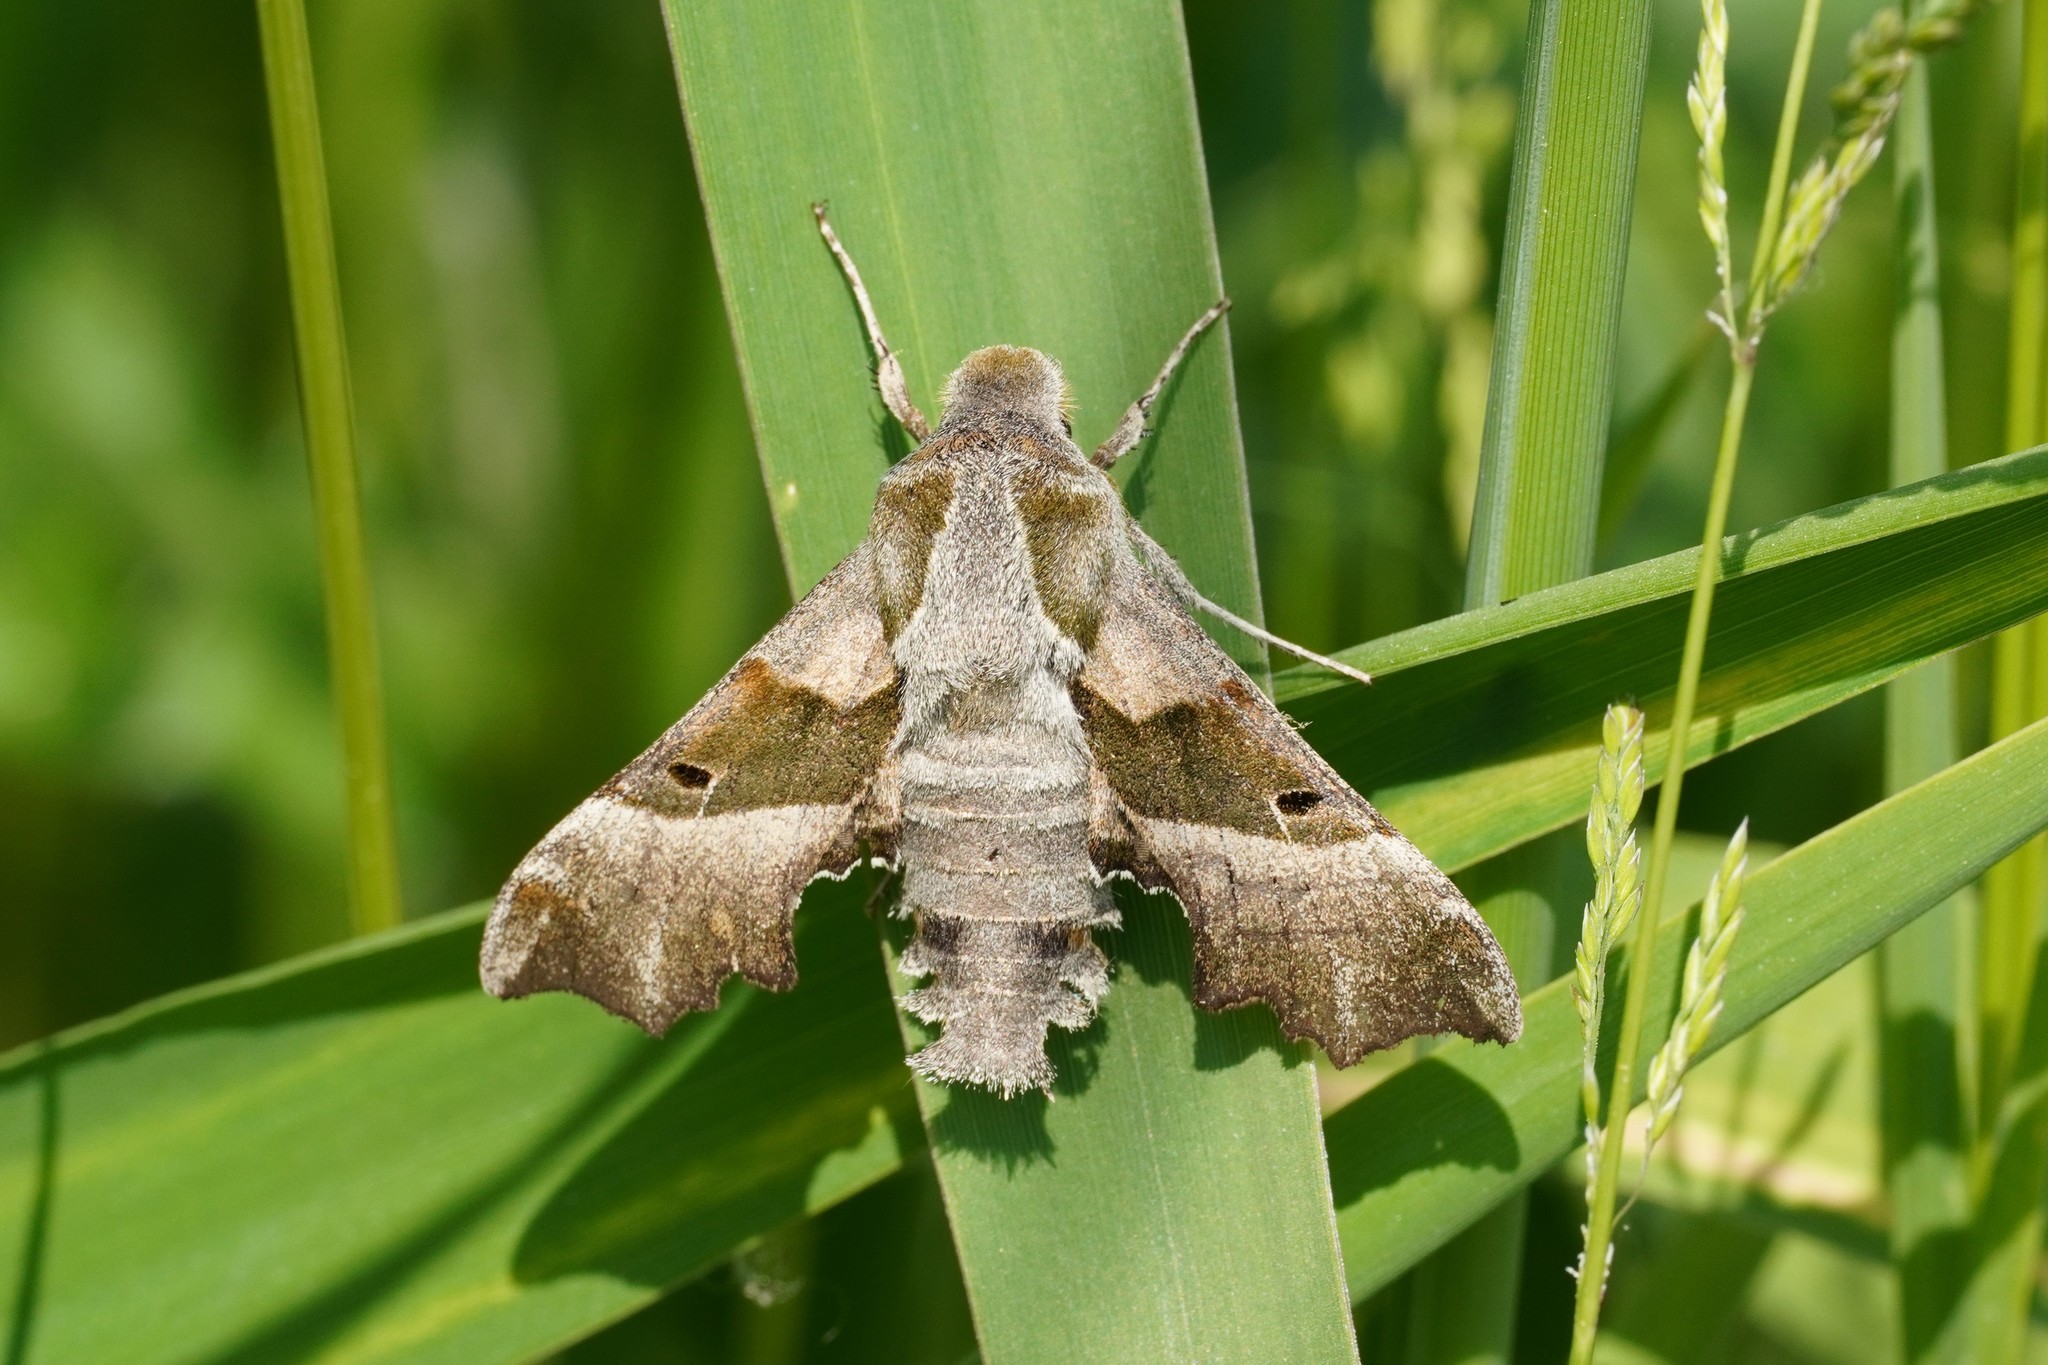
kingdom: Animalia
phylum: Arthropoda
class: Insecta
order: Lepidoptera
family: Sphingidae
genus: Proserpinus
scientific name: Proserpinus proserpina
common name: Willowherb hawkmoth
